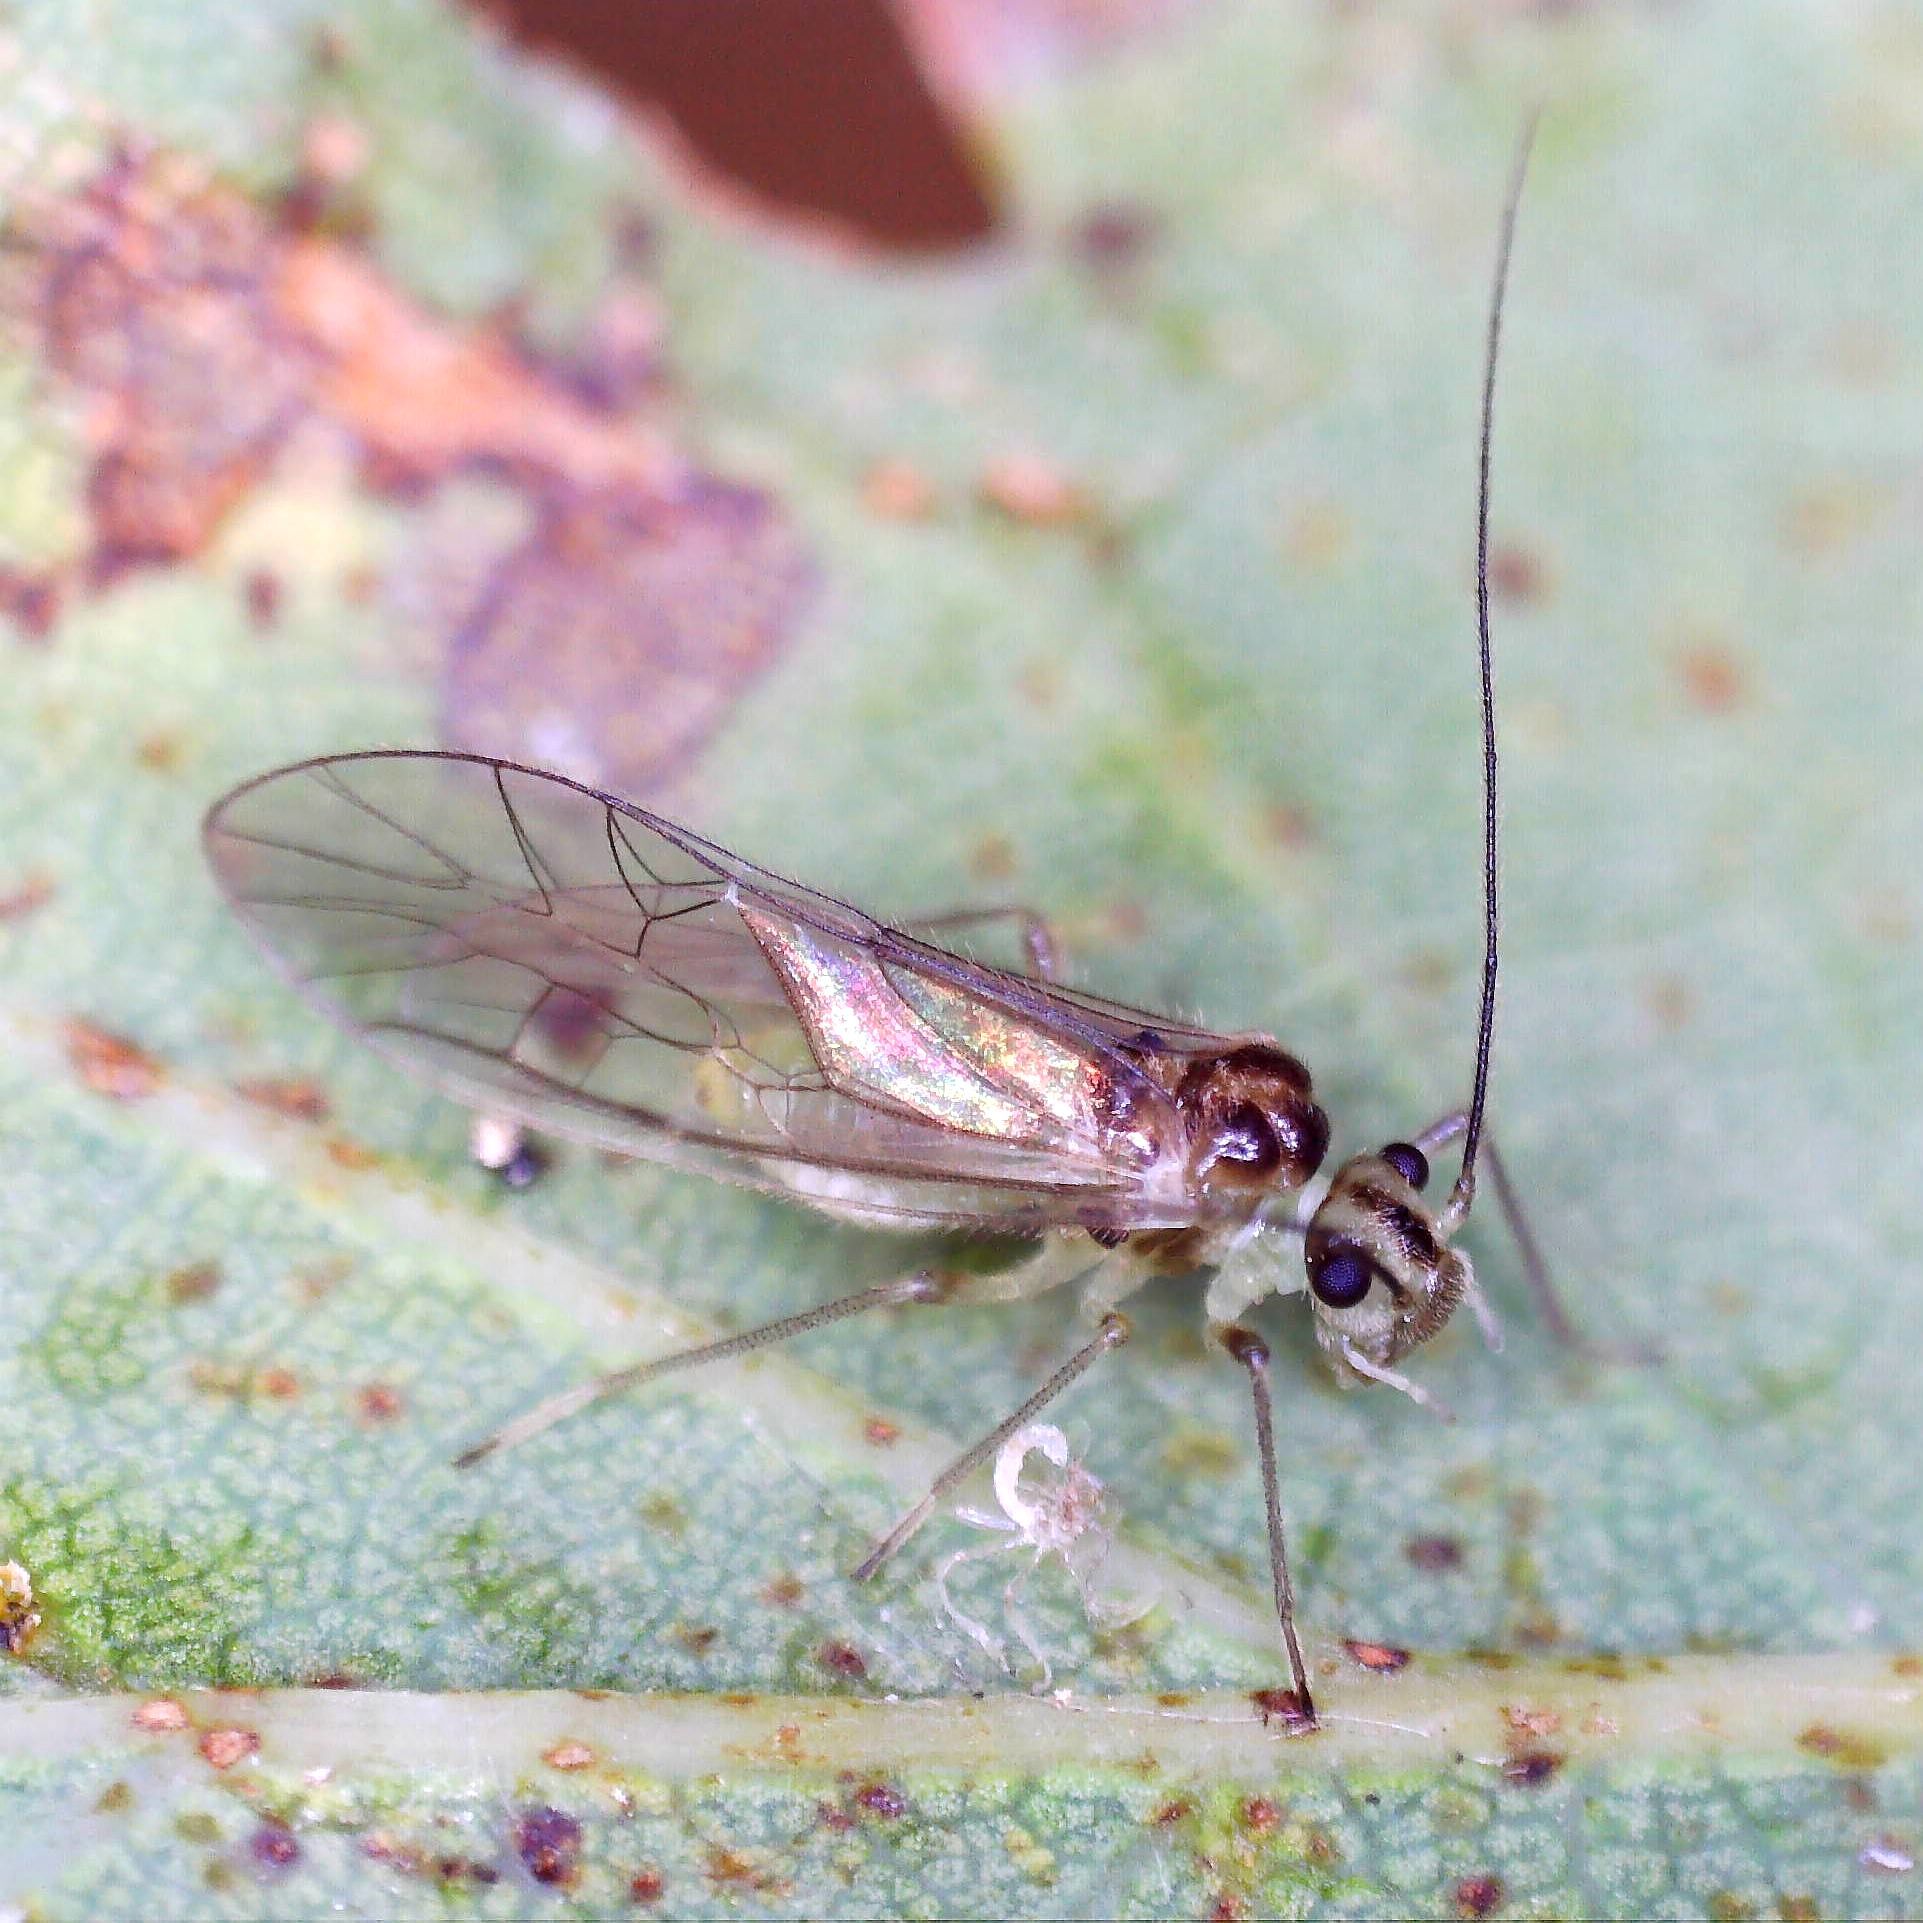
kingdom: Animalia
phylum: Arthropoda
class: Insecta
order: Psocodea
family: Stenopsocidae
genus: Stenopsocus
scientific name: Stenopsocus immaculatus
